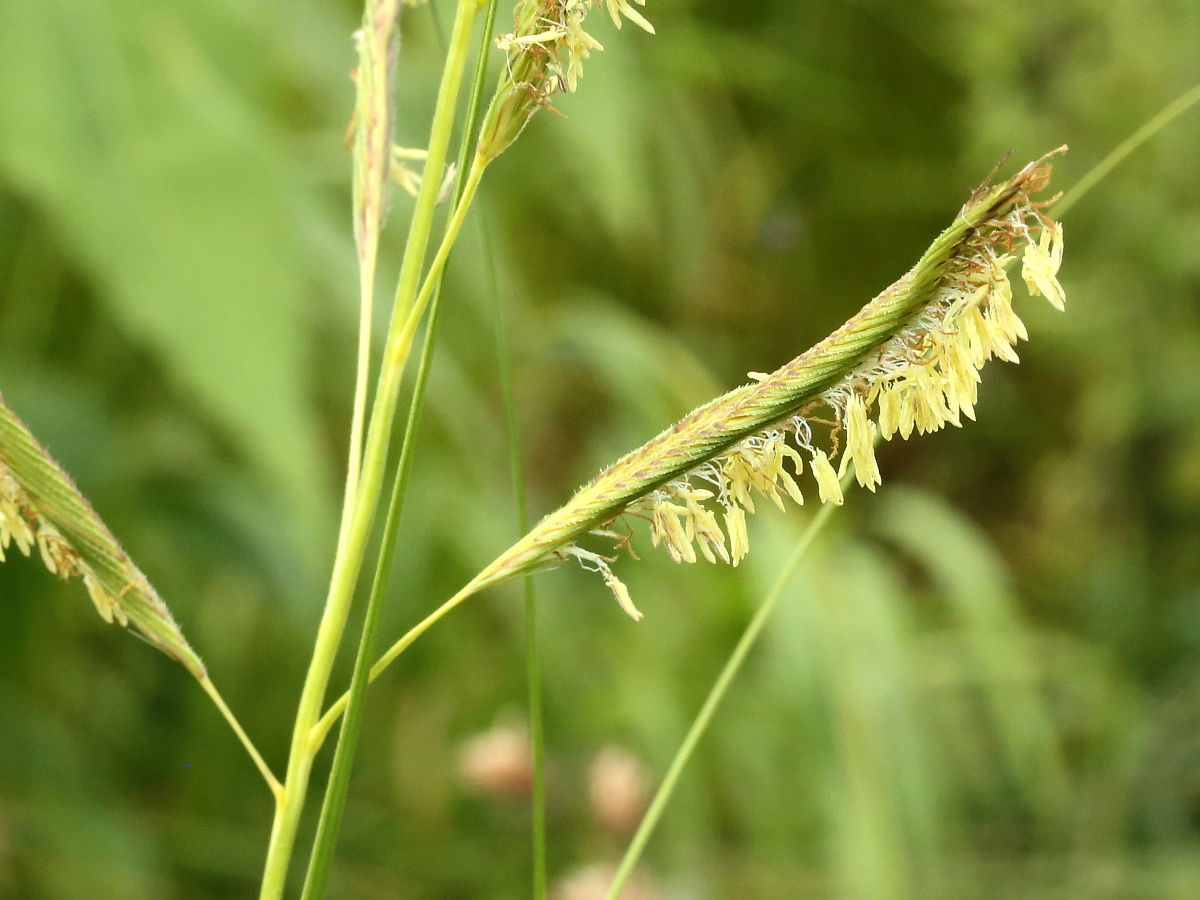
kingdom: Plantae
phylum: Tracheophyta
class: Liliopsida
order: Poales
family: Poaceae
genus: Sporobolus
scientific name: Sporobolus michauxianus
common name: Freshwater cordgrass
